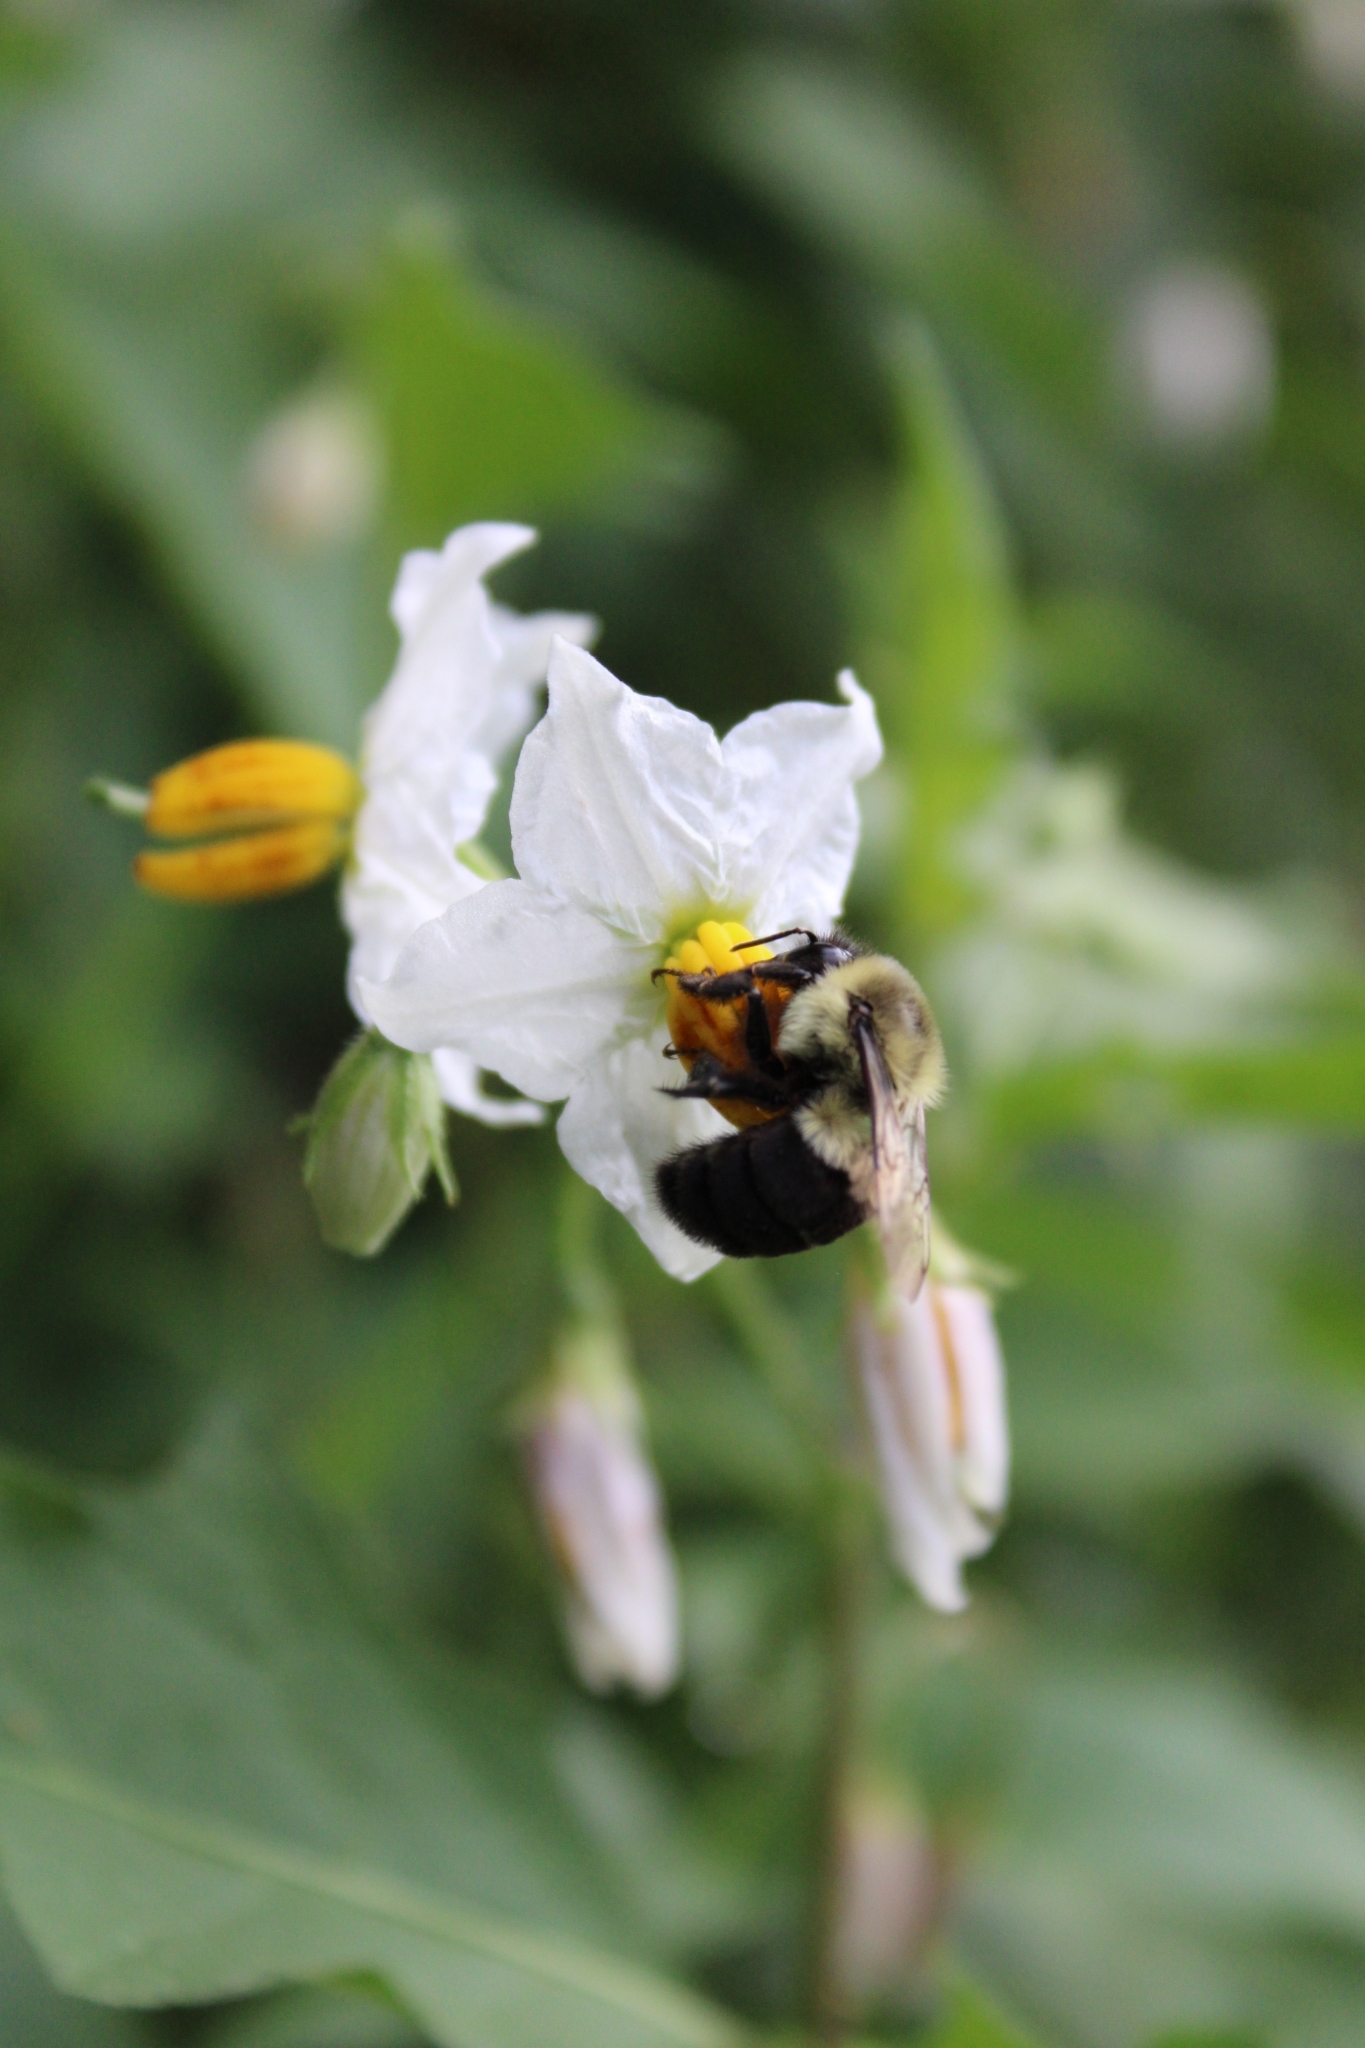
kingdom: Animalia
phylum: Arthropoda
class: Insecta
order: Hymenoptera
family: Apidae
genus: Bombus
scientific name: Bombus impatiens
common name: Common eastern bumble bee
